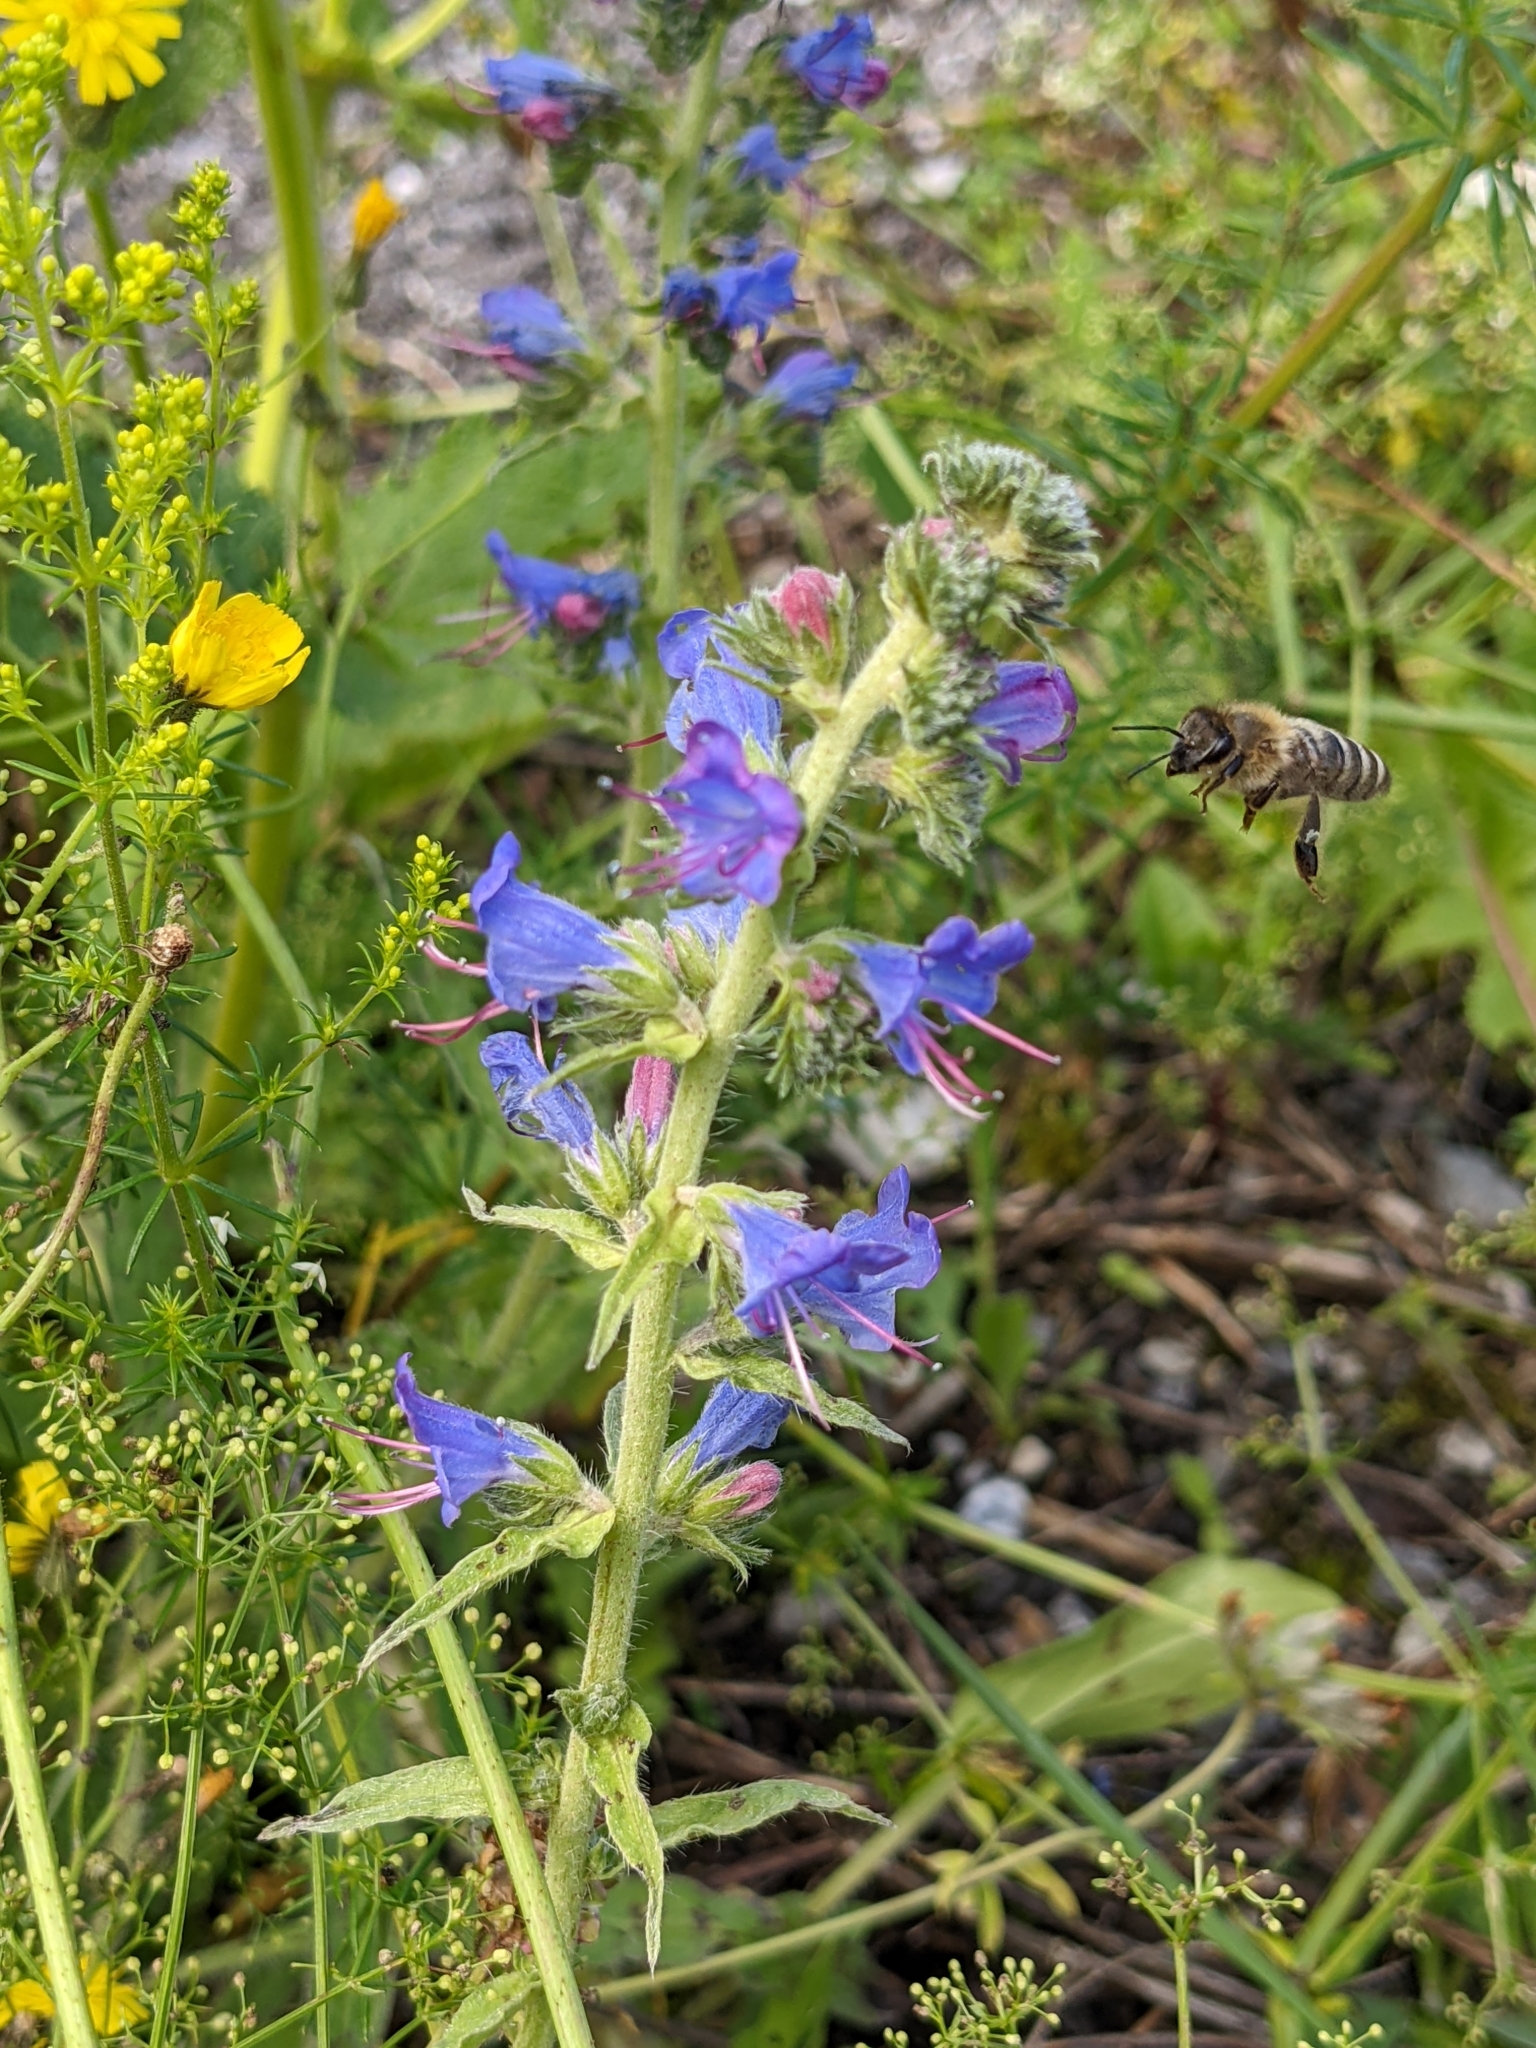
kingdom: Animalia
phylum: Arthropoda
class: Insecta
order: Hymenoptera
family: Apidae
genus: Apis
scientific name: Apis mellifera
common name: Honey bee
